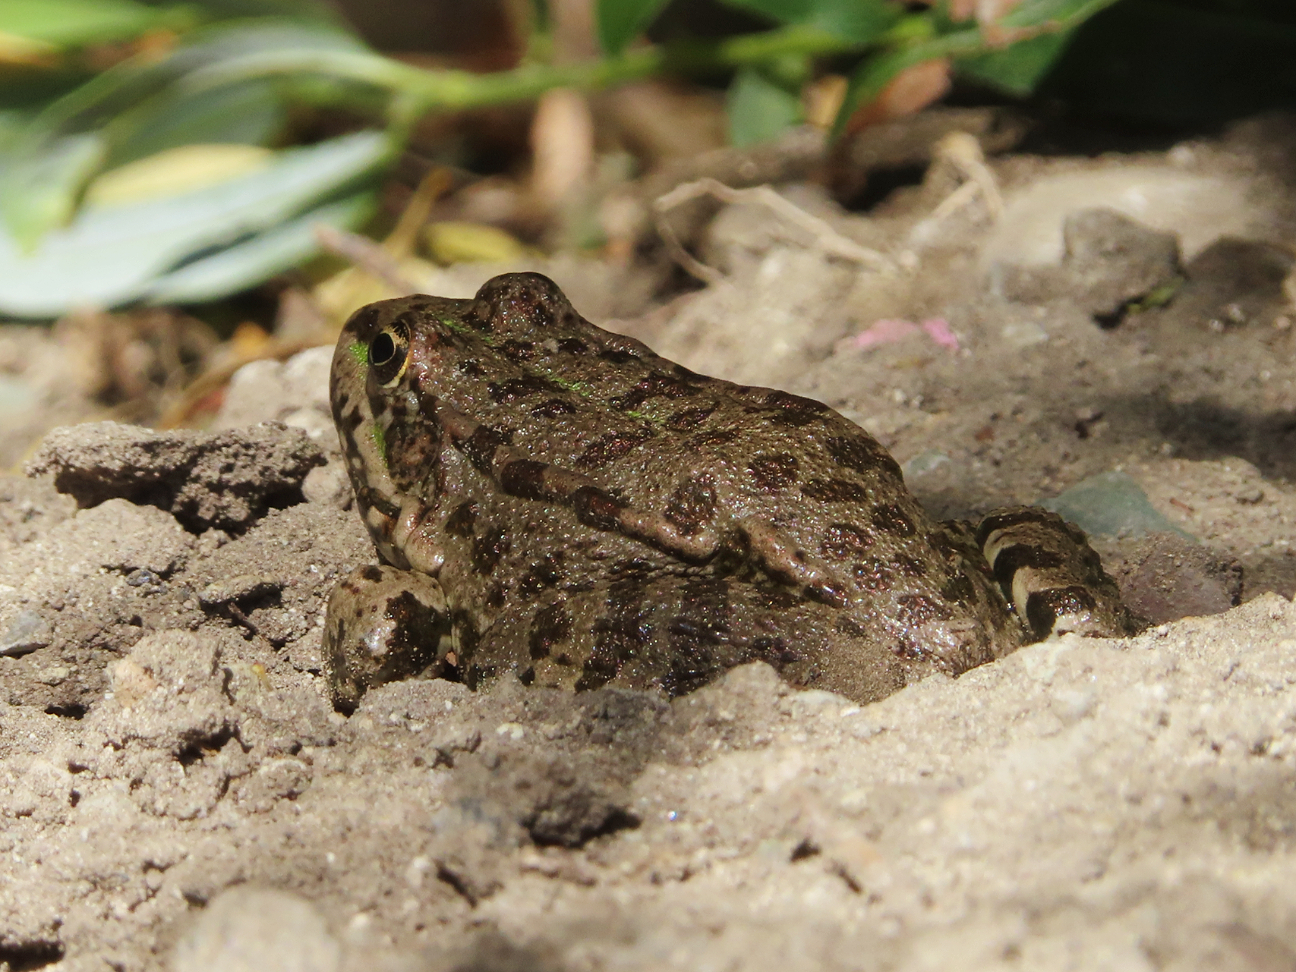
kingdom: Animalia
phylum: Chordata
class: Amphibia
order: Anura
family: Ranidae
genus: Pelophylax
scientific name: Pelophylax ridibundus
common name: Marsh frog
